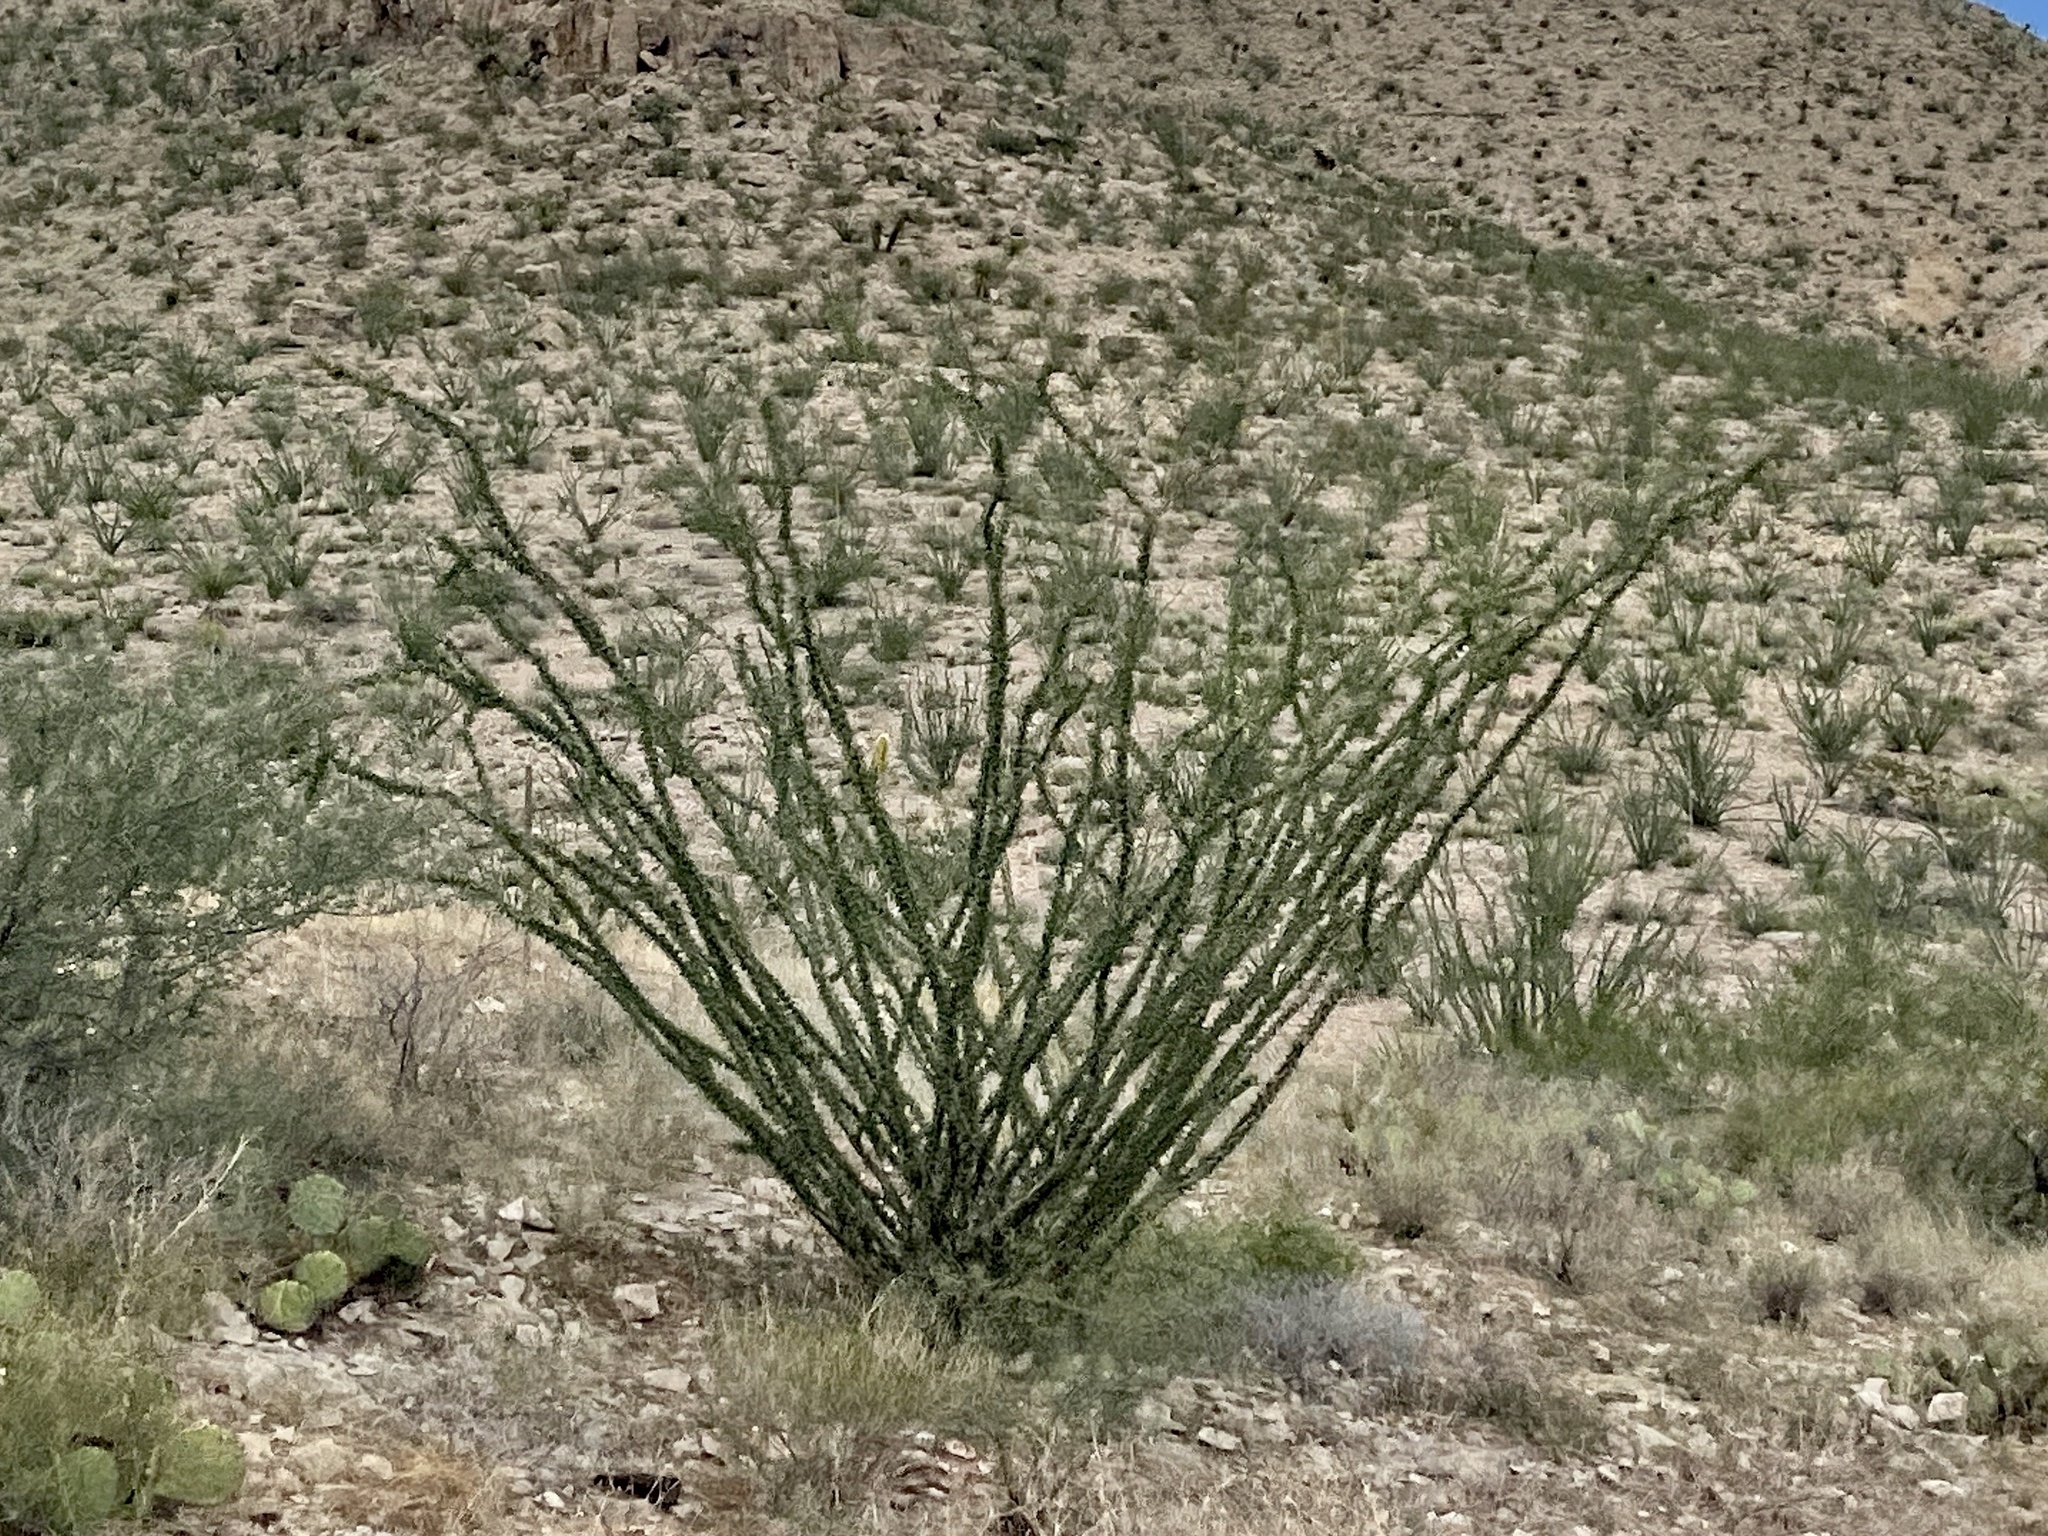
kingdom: Plantae
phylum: Tracheophyta
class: Magnoliopsida
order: Ericales
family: Fouquieriaceae
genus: Fouquieria
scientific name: Fouquieria splendens
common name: Vine-cactus
